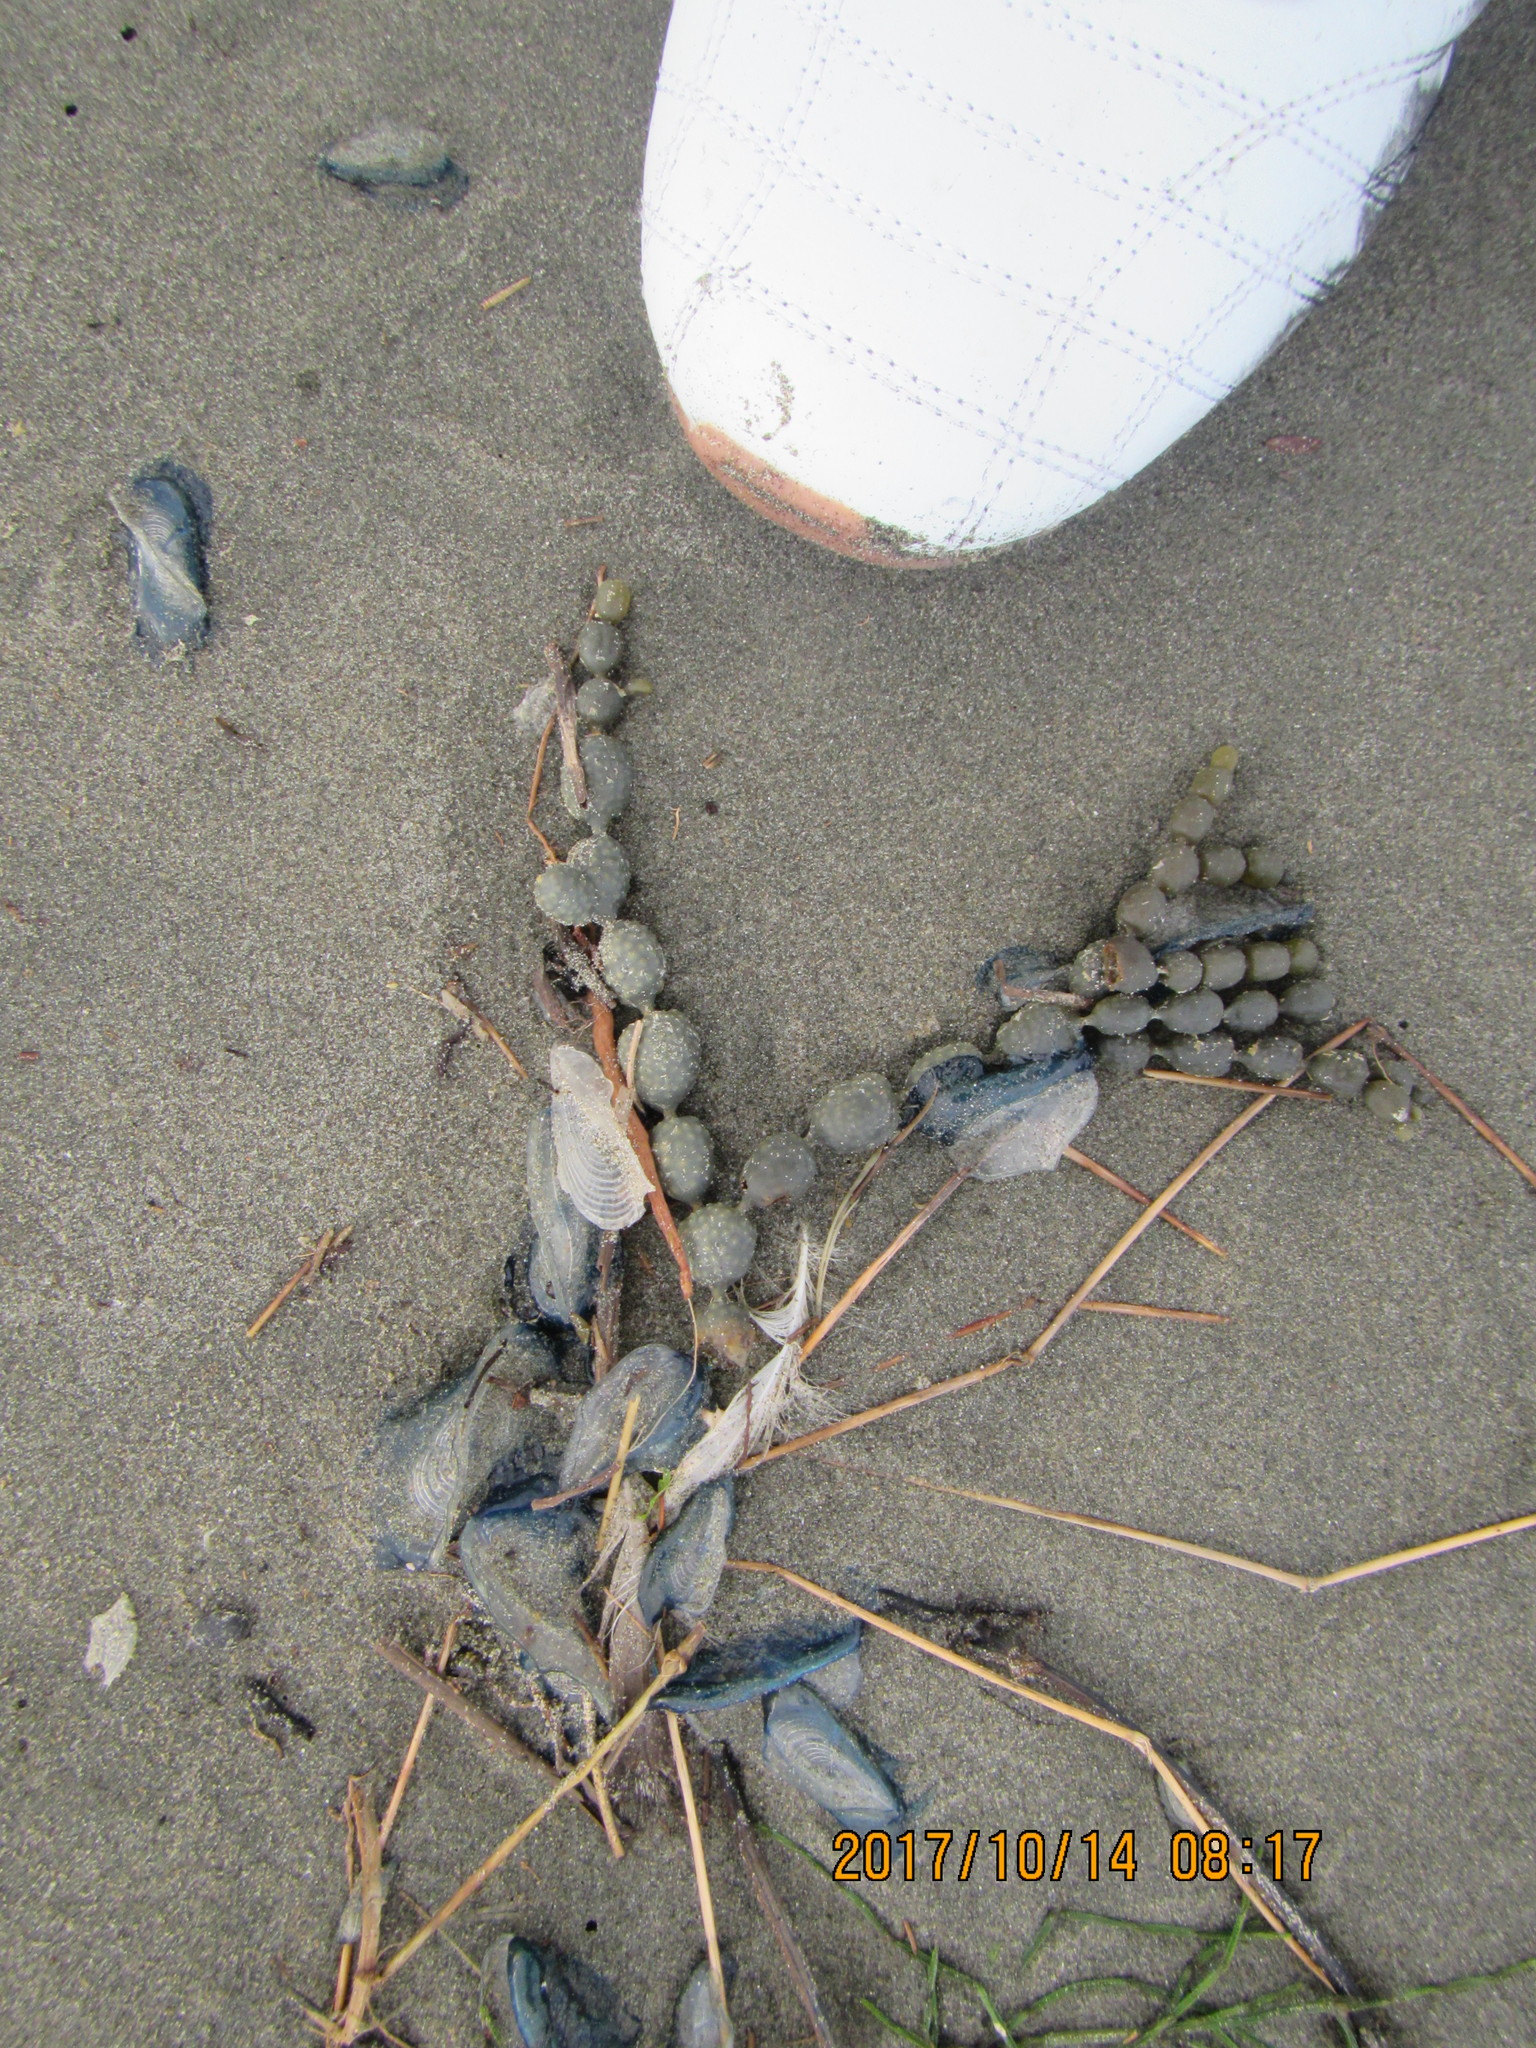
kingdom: Chromista
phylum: Ochrophyta
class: Phaeophyceae
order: Fucales
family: Hormosiraceae
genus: Hormosira
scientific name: Hormosira banksii
